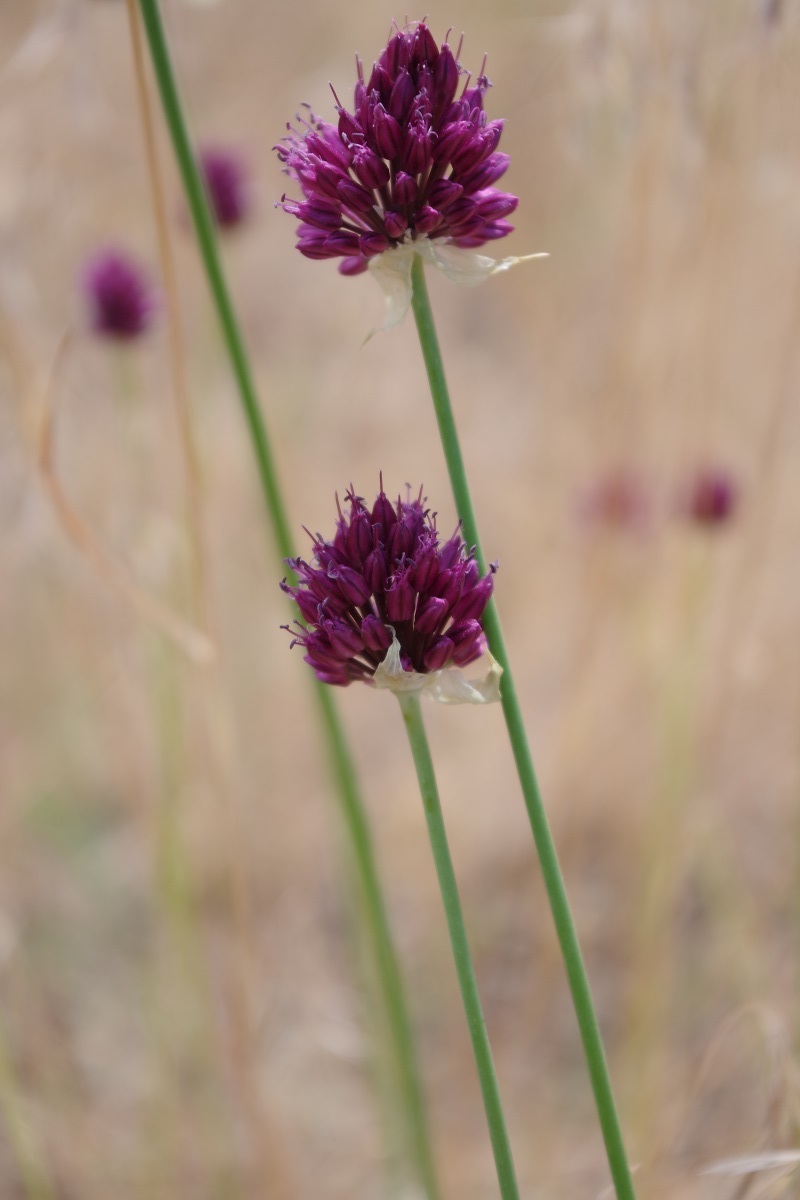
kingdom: Plantae
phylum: Tracheophyta
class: Liliopsida
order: Asparagales
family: Amaryllidaceae
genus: Allium
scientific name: Allium sphaerocephalon
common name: Round-headed leek
